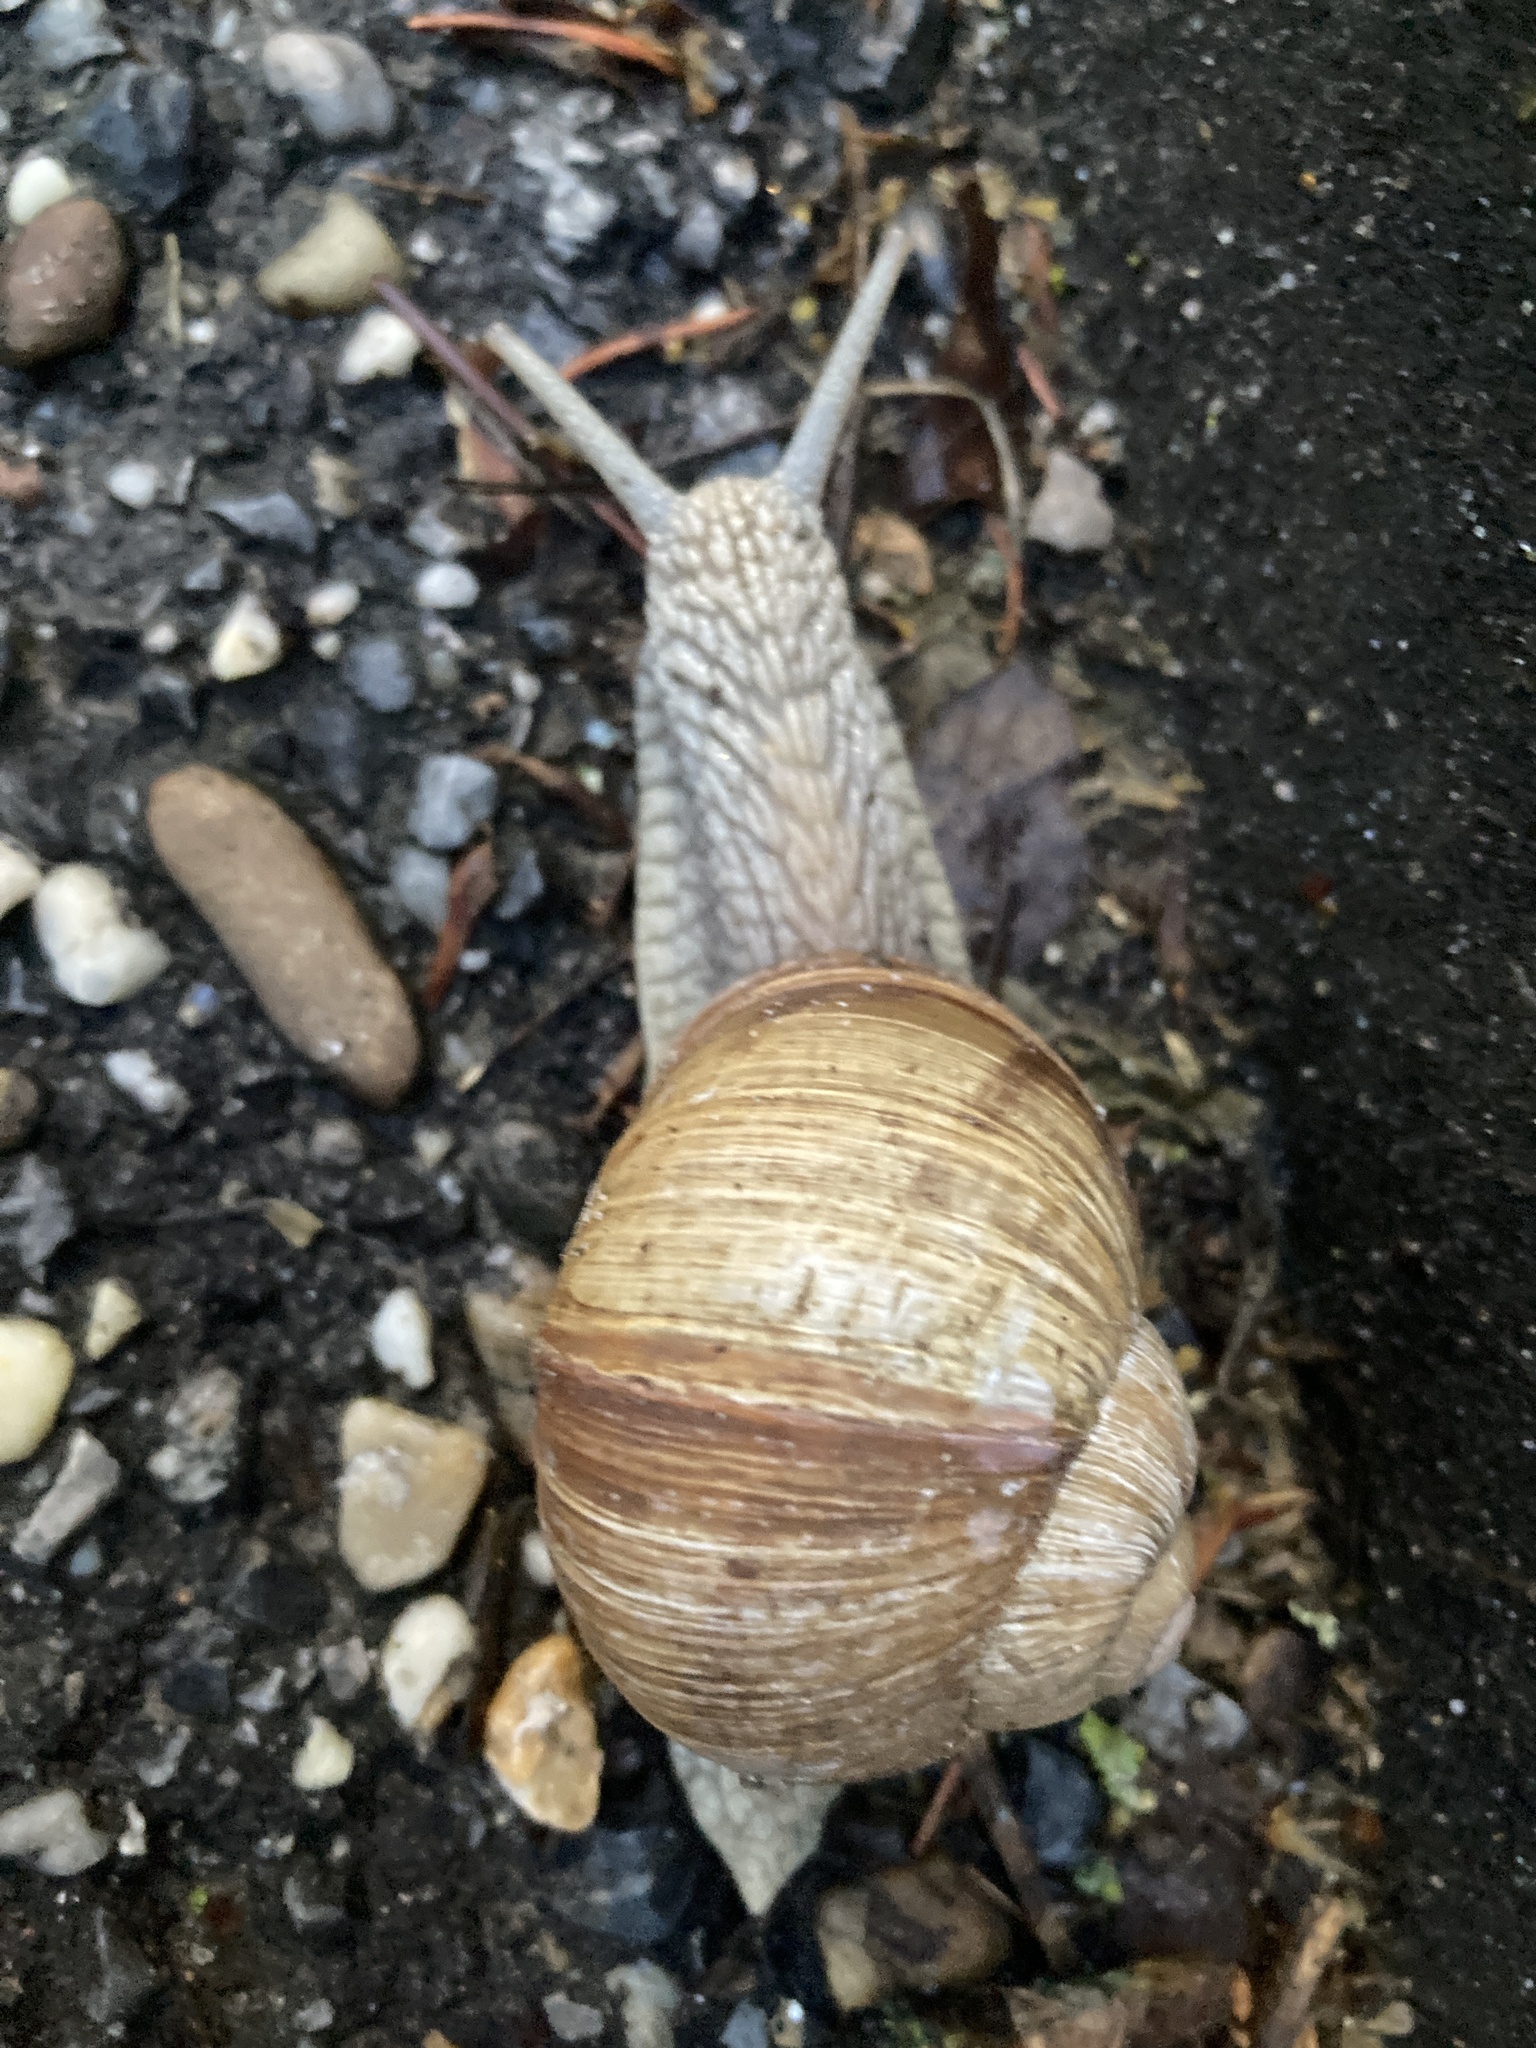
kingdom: Animalia
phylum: Mollusca
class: Gastropoda
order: Stylommatophora
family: Helicidae
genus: Helix
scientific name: Helix pomatia
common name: Roman snail
